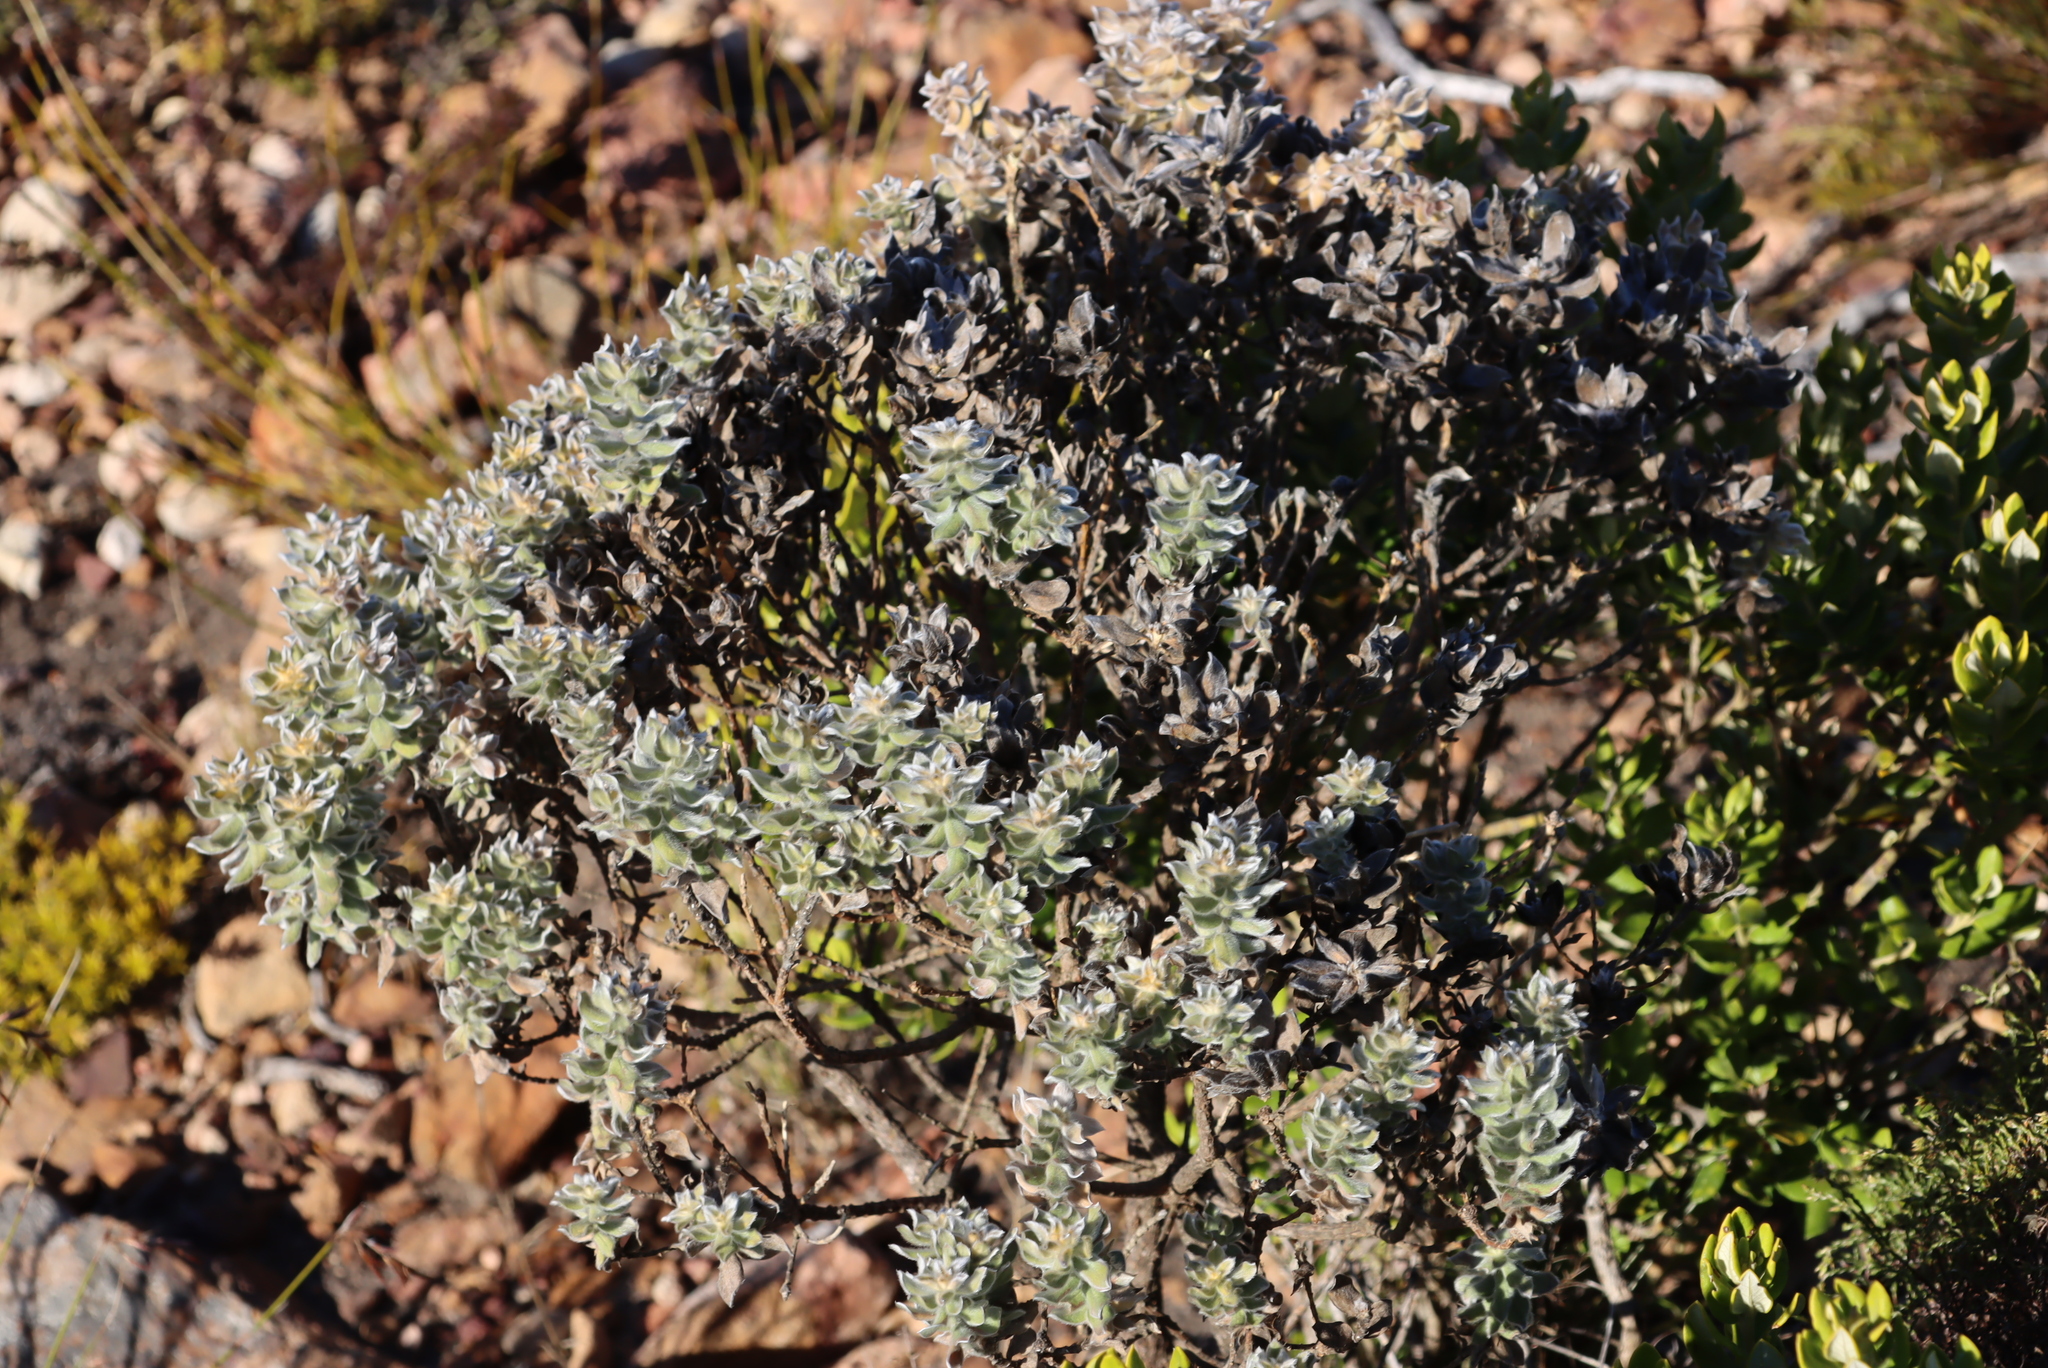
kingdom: Plantae
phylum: Tracheophyta
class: Magnoliopsida
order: Fabales
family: Fabaceae
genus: Xiphotheca
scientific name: Xiphotheca fruticosa
